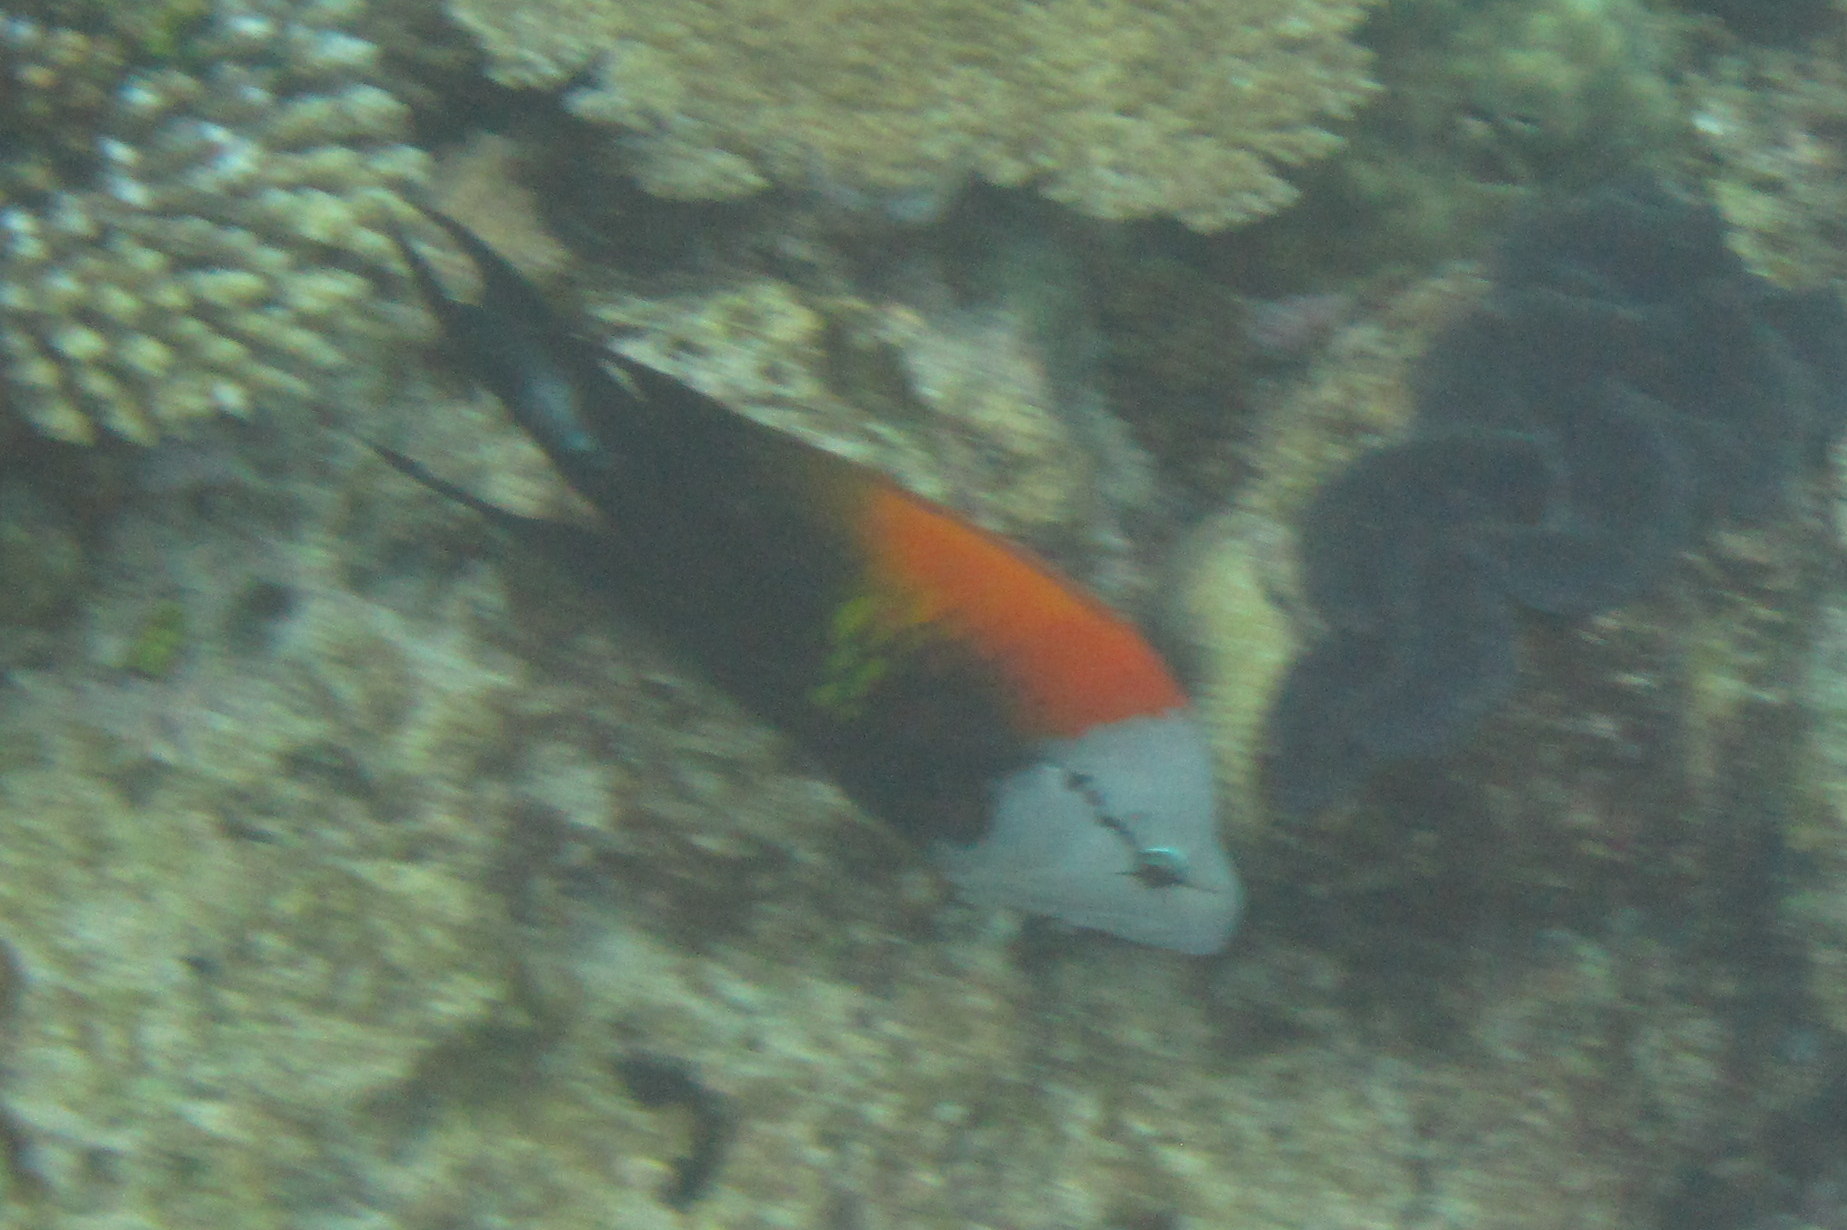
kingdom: Animalia
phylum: Chordata
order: Perciformes
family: Labridae
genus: Epibulus
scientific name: Epibulus insidiator
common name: Slingjaw wrasse
